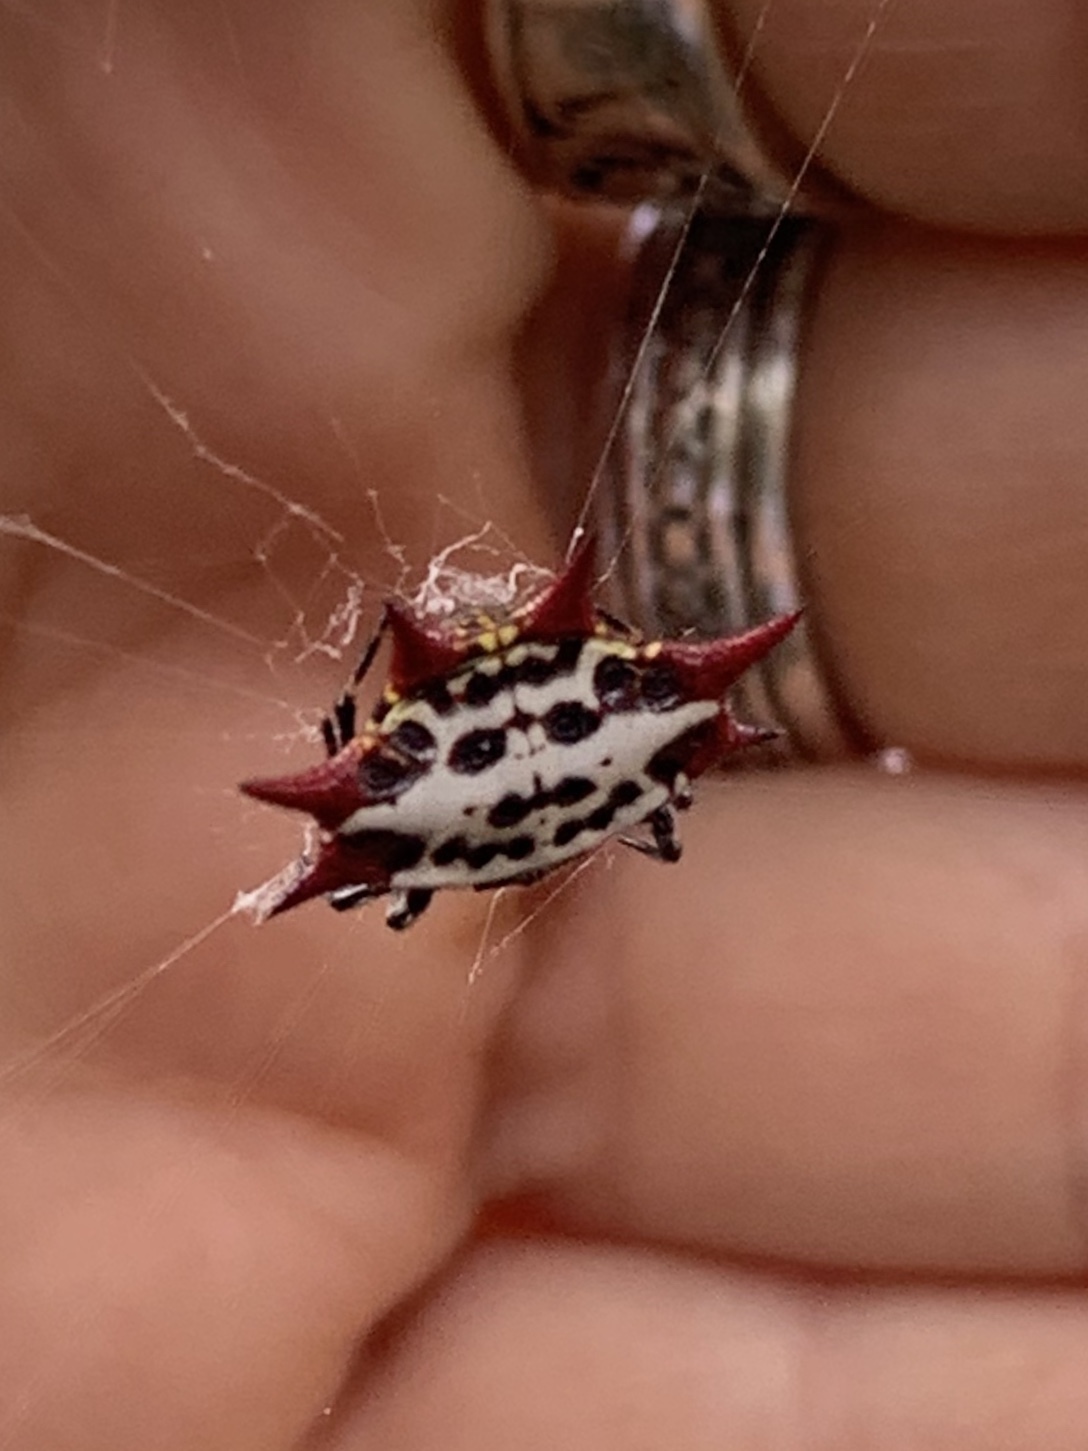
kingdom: Animalia
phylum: Arthropoda
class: Arachnida
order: Araneae
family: Araneidae
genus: Gasteracantha
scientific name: Gasteracantha cancriformis
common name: Orb weavers
